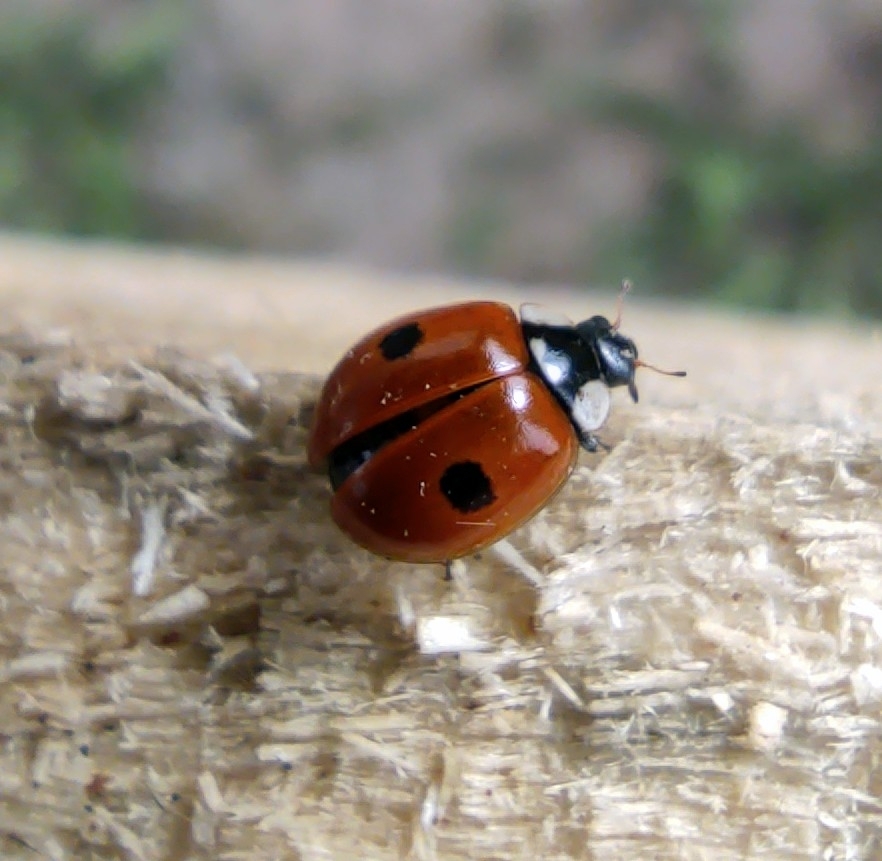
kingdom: Animalia
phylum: Arthropoda
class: Insecta
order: Coleoptera
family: Coccinellidae
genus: Adalia
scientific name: Adalia bipunctata
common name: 2-spot ladybird
